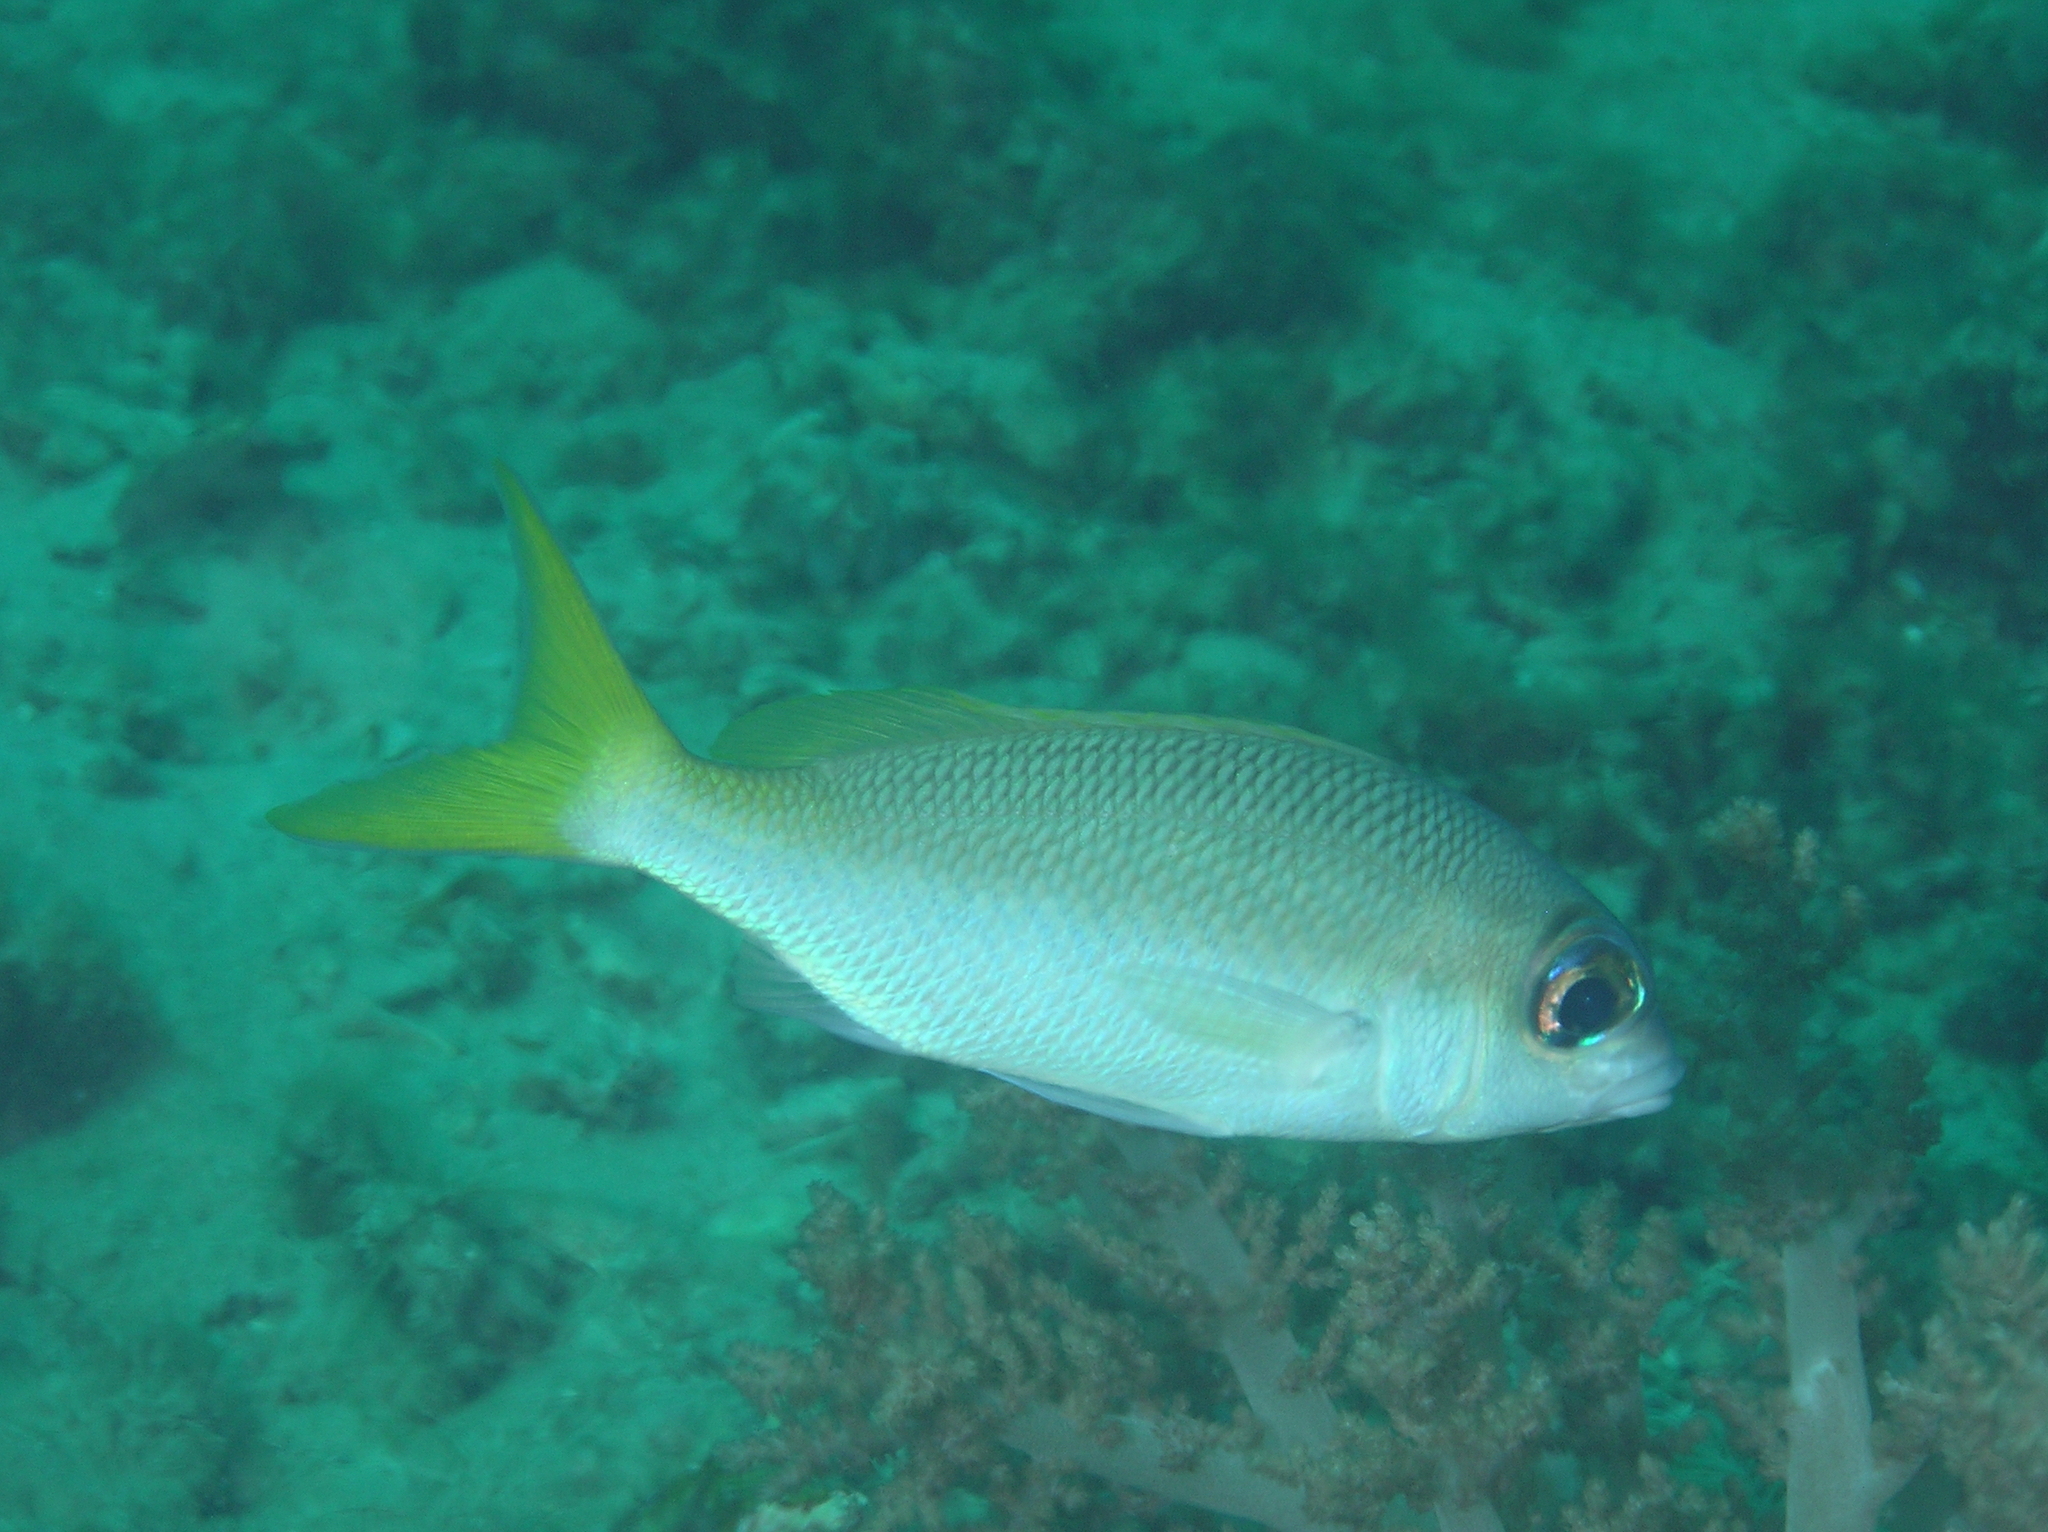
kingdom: Animalia
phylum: Chordata
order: Perciformes
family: Nemipteridae
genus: Scolopsis
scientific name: Scolopsis affinis
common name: Peters' monocle bream
